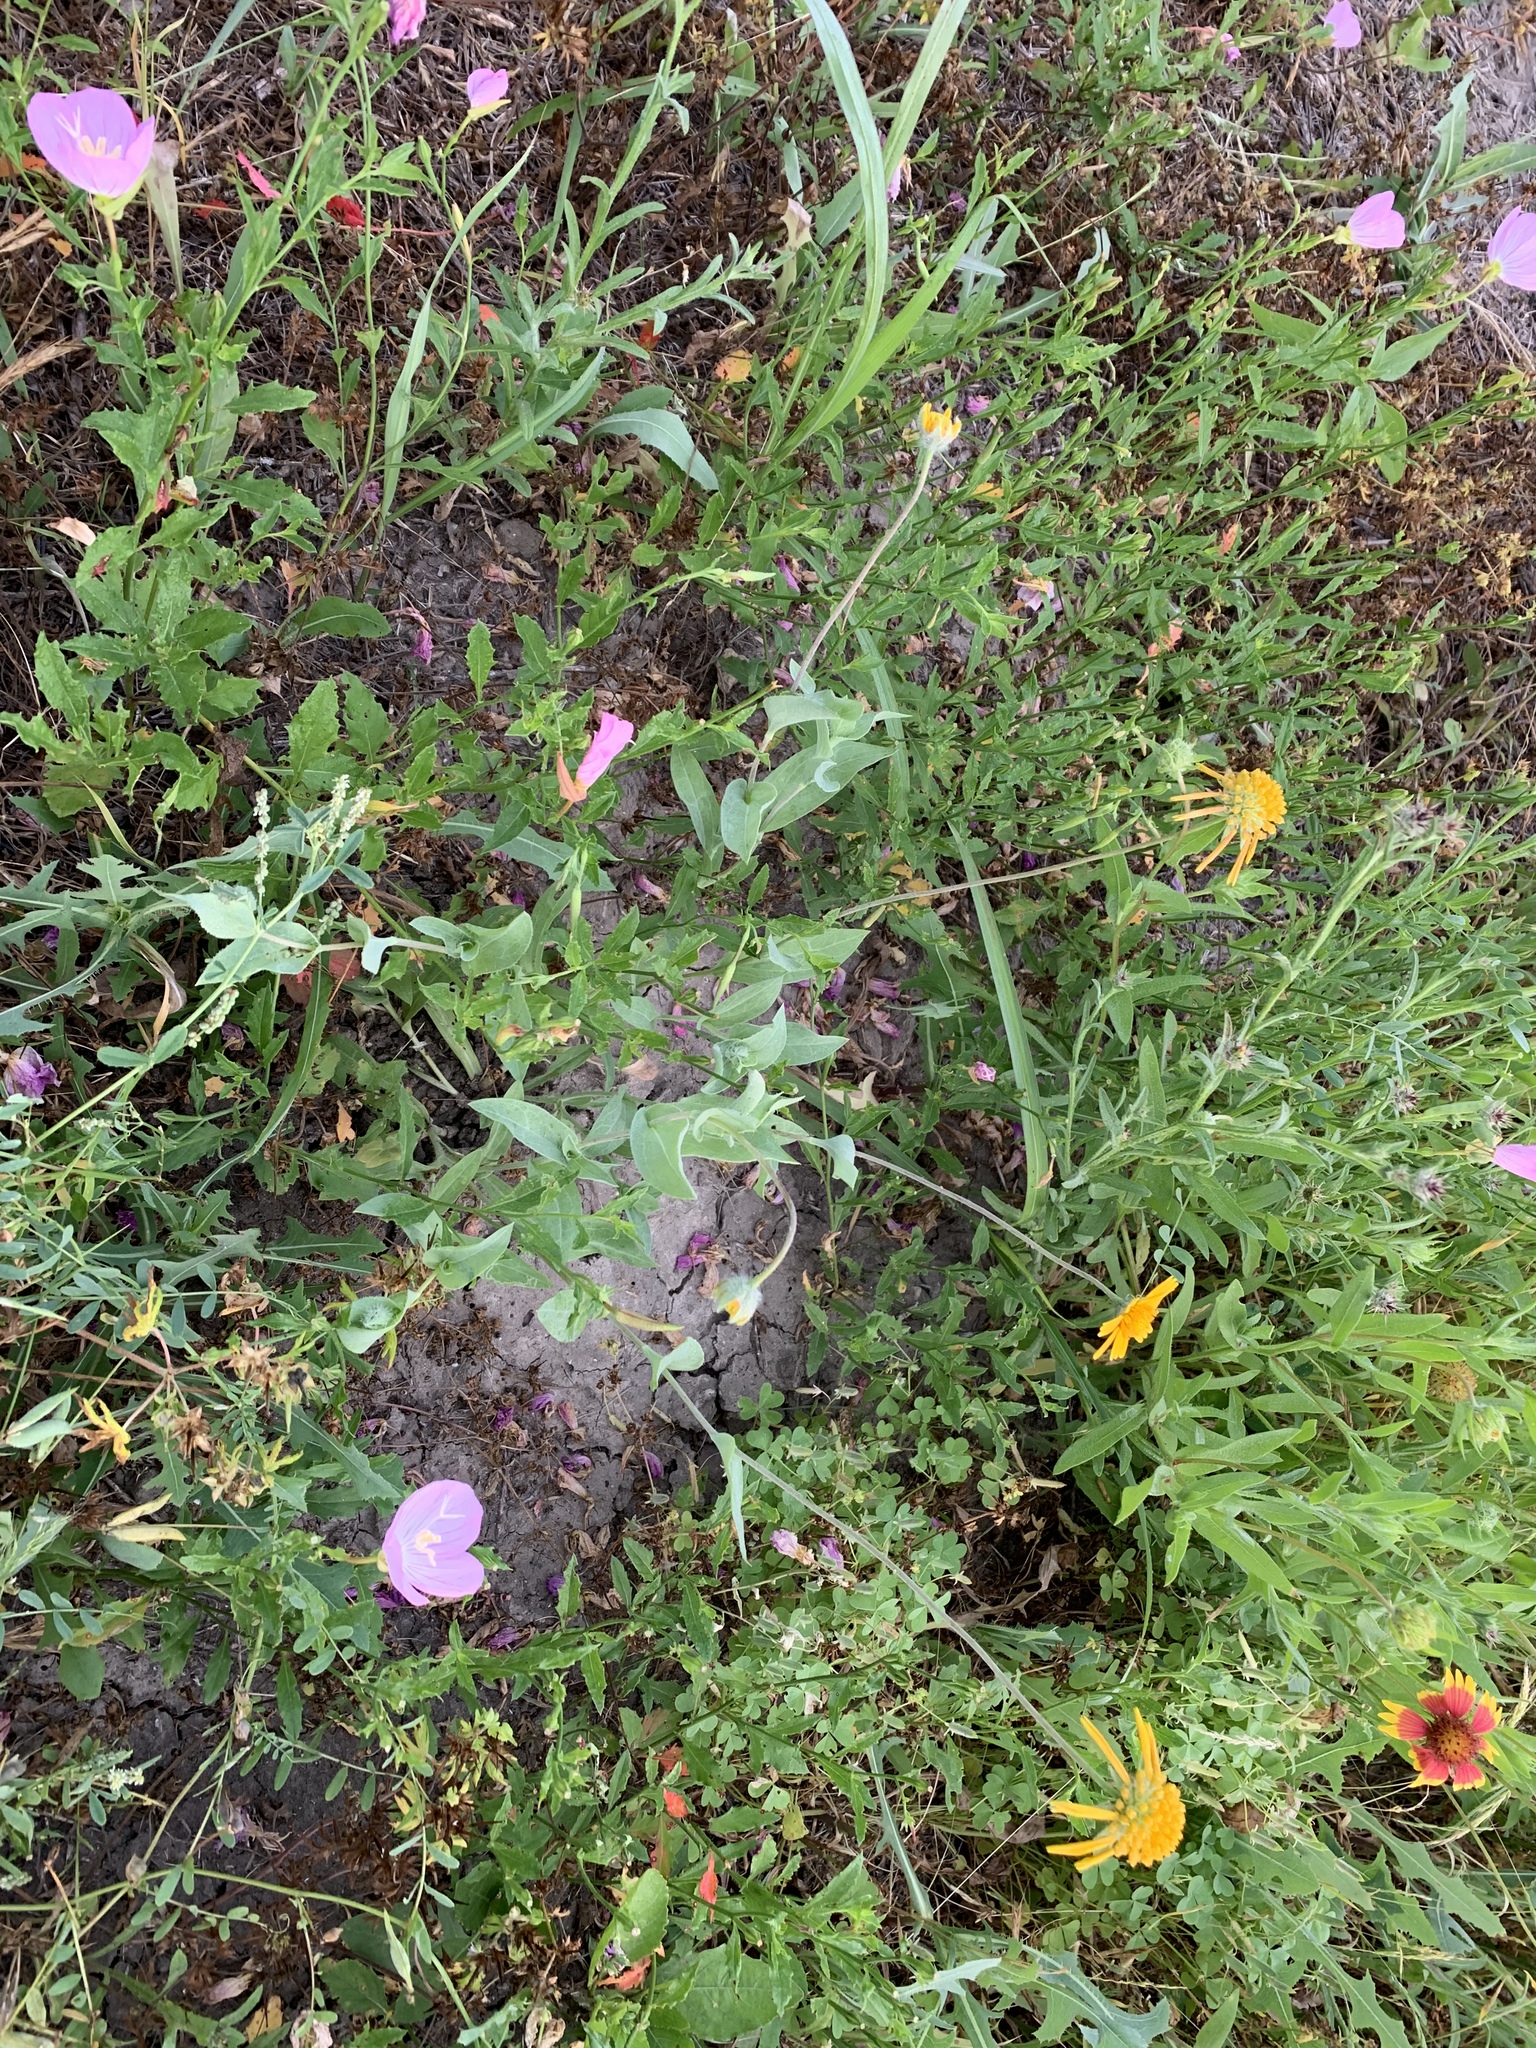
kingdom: Plantae
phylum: Tracheophyta
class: Magnoliopsida
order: Asterales
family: Asteraceae
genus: Amblyolepis
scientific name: Amblyolepis setigera
